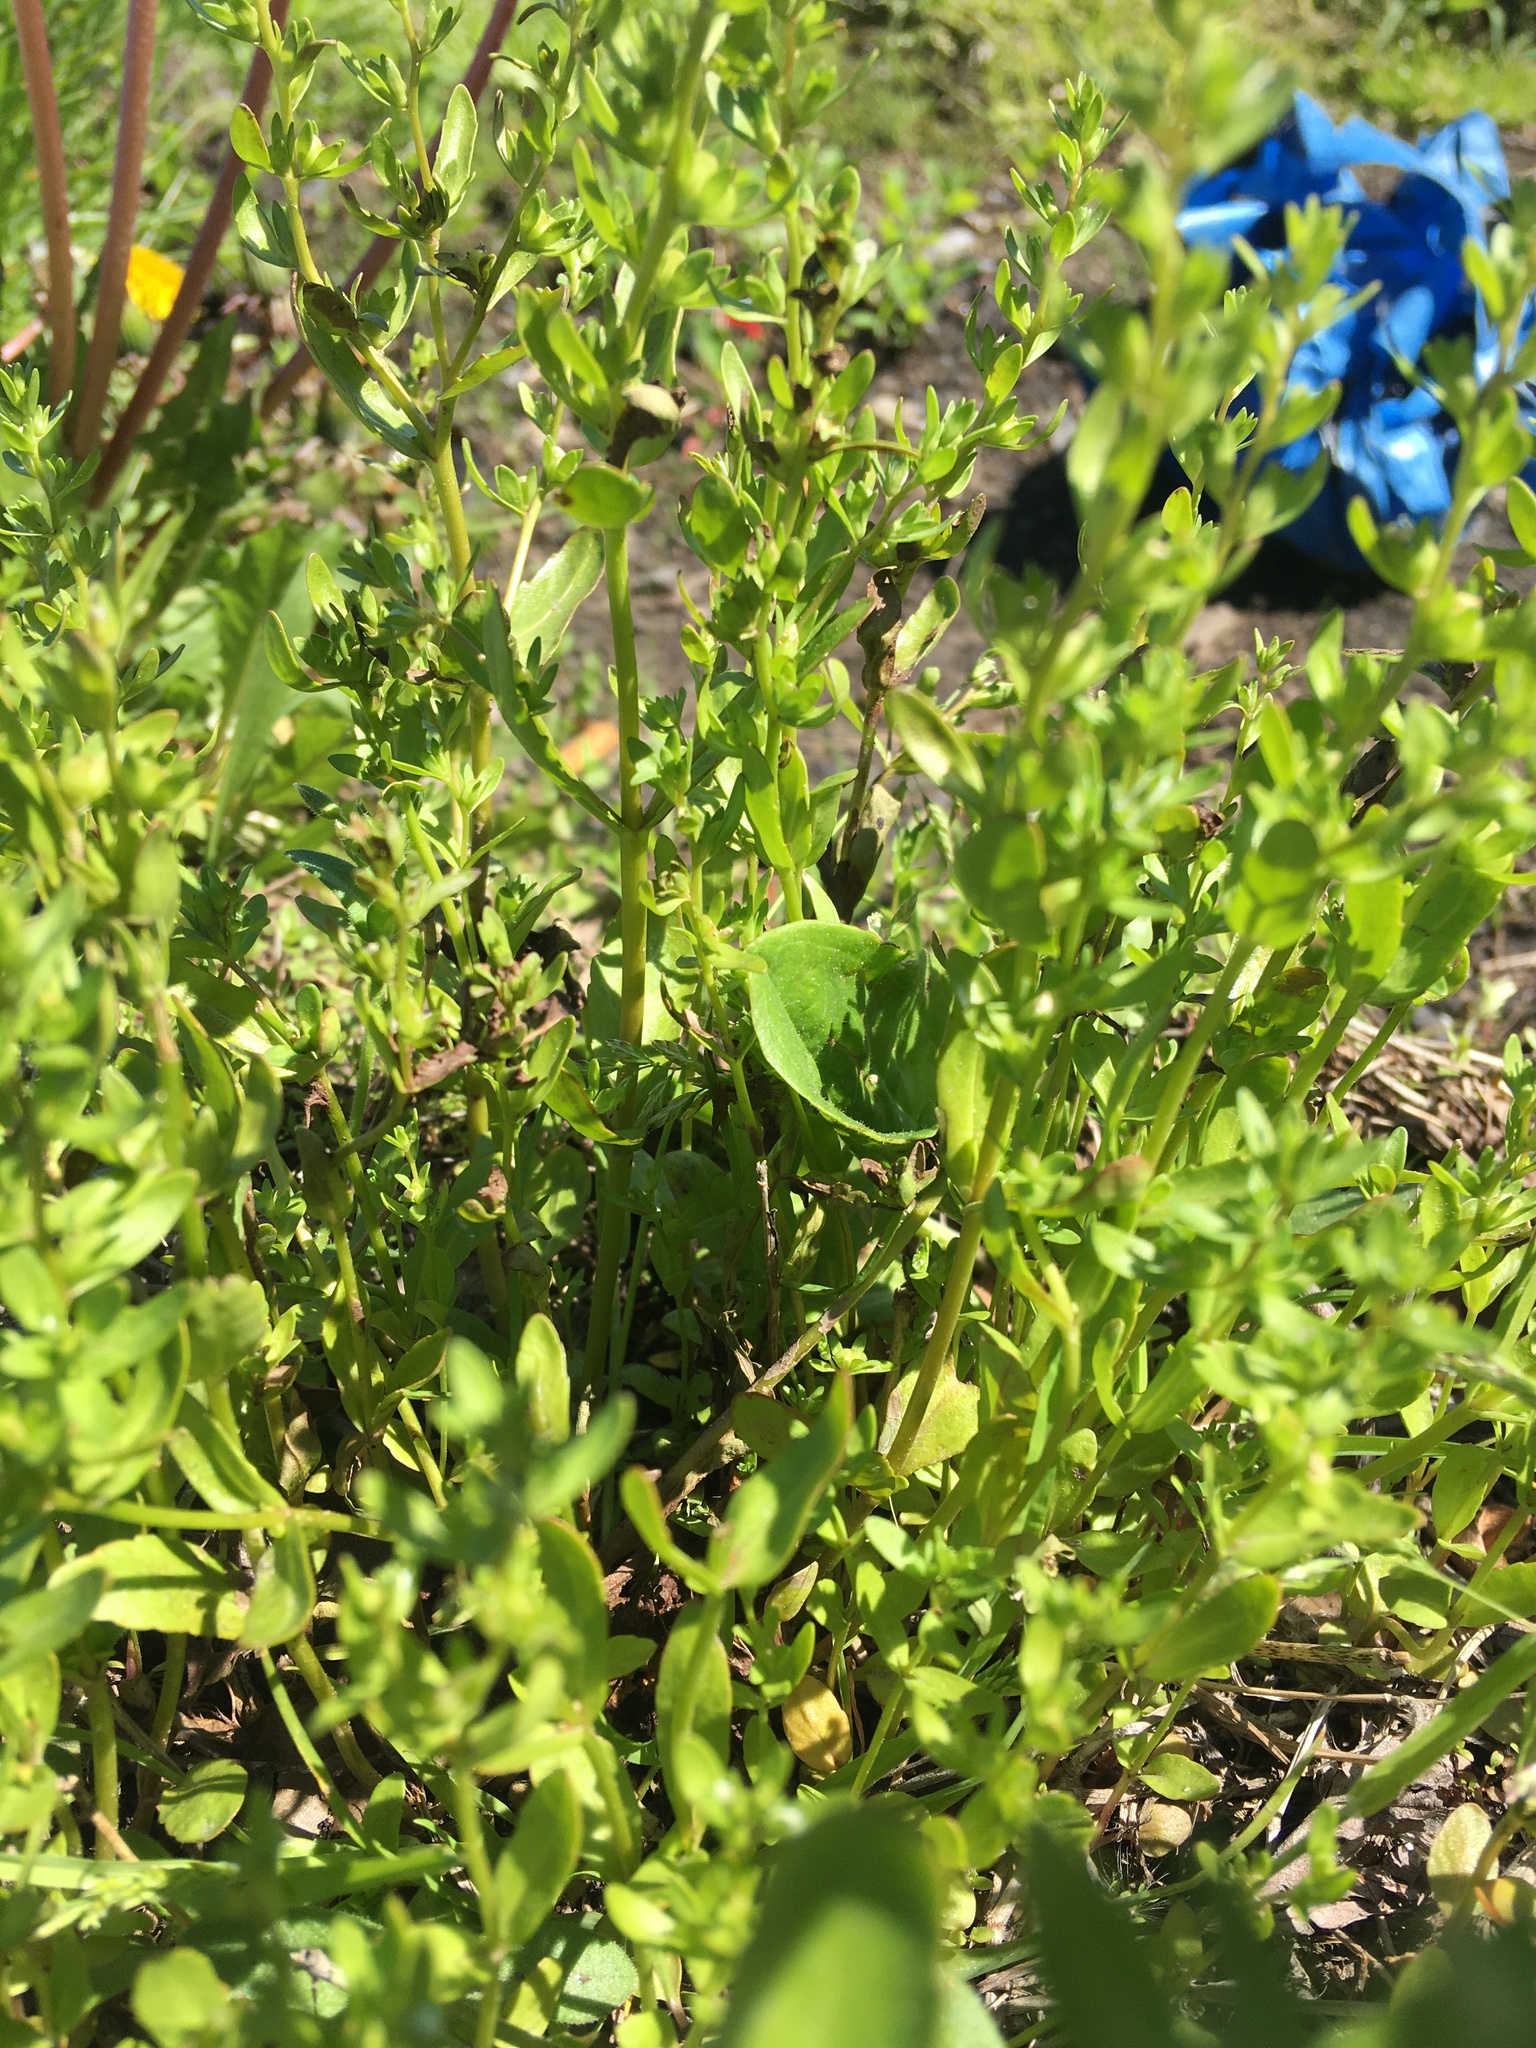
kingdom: Plantae
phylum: Tracheophyta
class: Magnoliopsida
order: Lamiales
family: Plantaginaceae
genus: Veronica
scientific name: Veronica peregrina
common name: Neckweed
